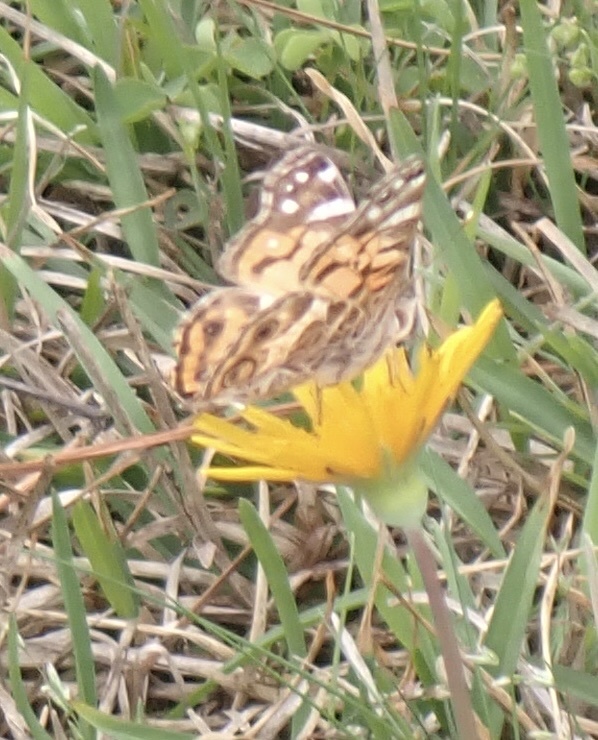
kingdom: Animalia
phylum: Arthropoda
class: Insecta
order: Lepidoptera
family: Nymphalidae
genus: Vanessa
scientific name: Vanessa virginiensis
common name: American lady
